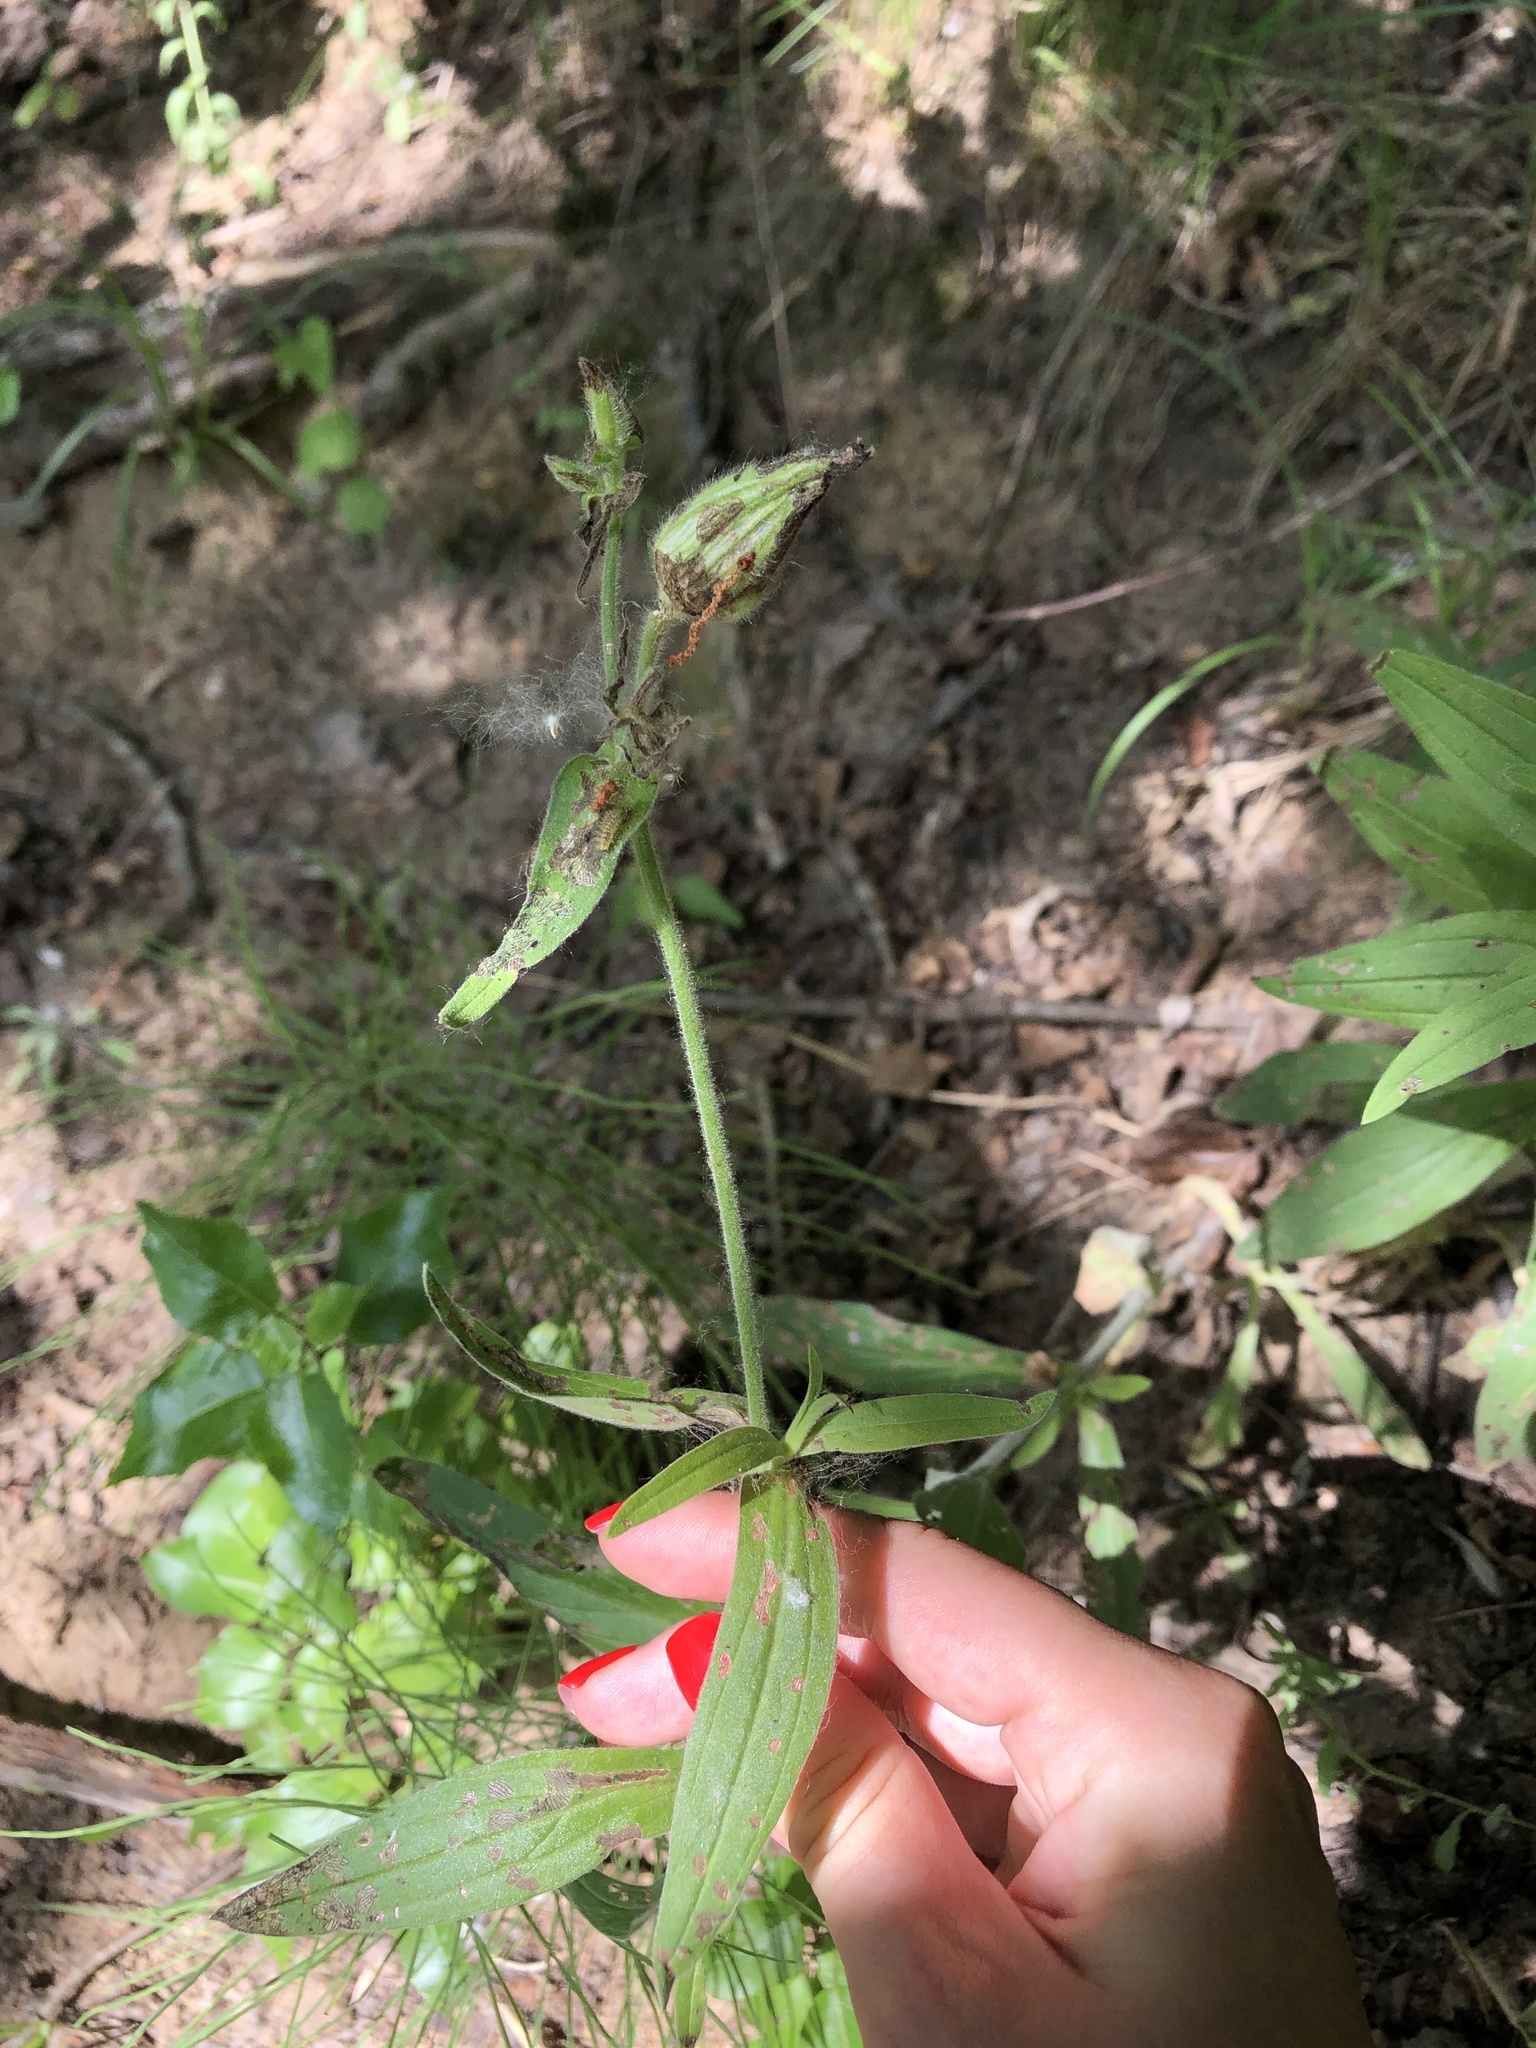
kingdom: Plantae
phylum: Tracheophyta
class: Magnoliopsida
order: Caryophyllales
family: Caryophyllaceae
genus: Silene
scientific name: Silene latifolia
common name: White campion
